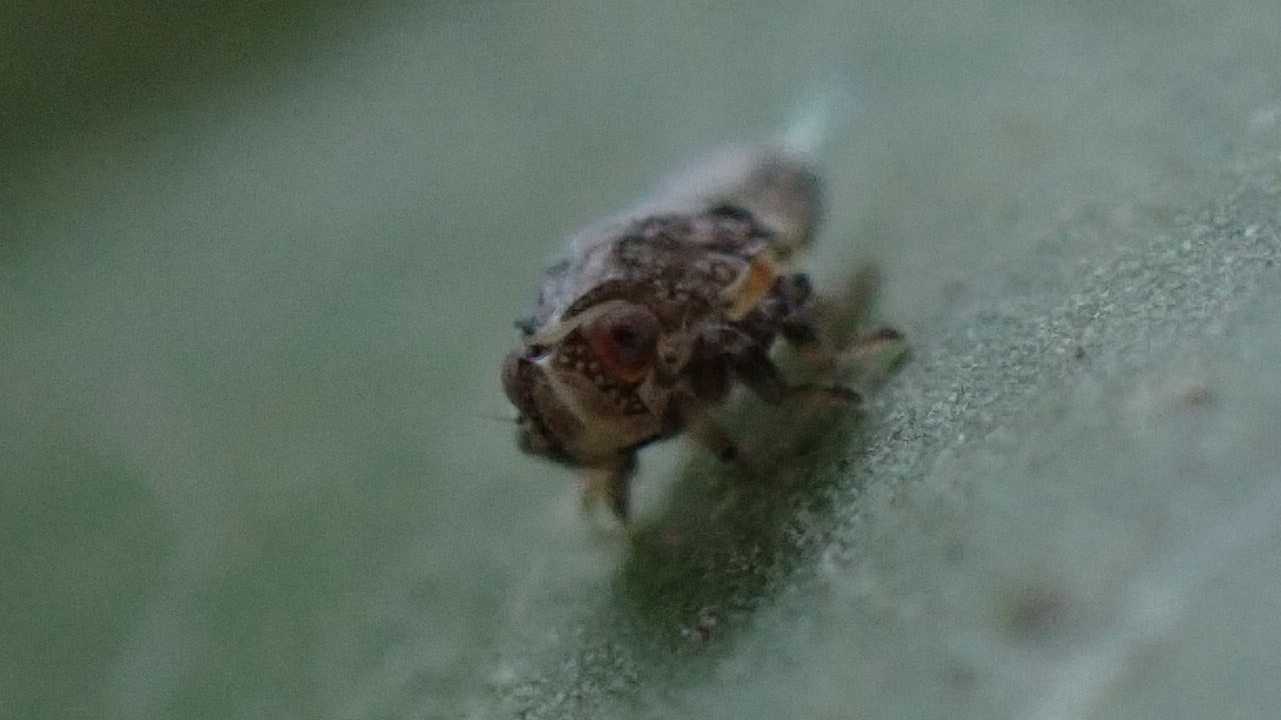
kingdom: Animalia
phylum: Arthropoda
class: Insecta
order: Hemiptera
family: Issidae
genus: Issus
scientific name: Issus coleoptratus
